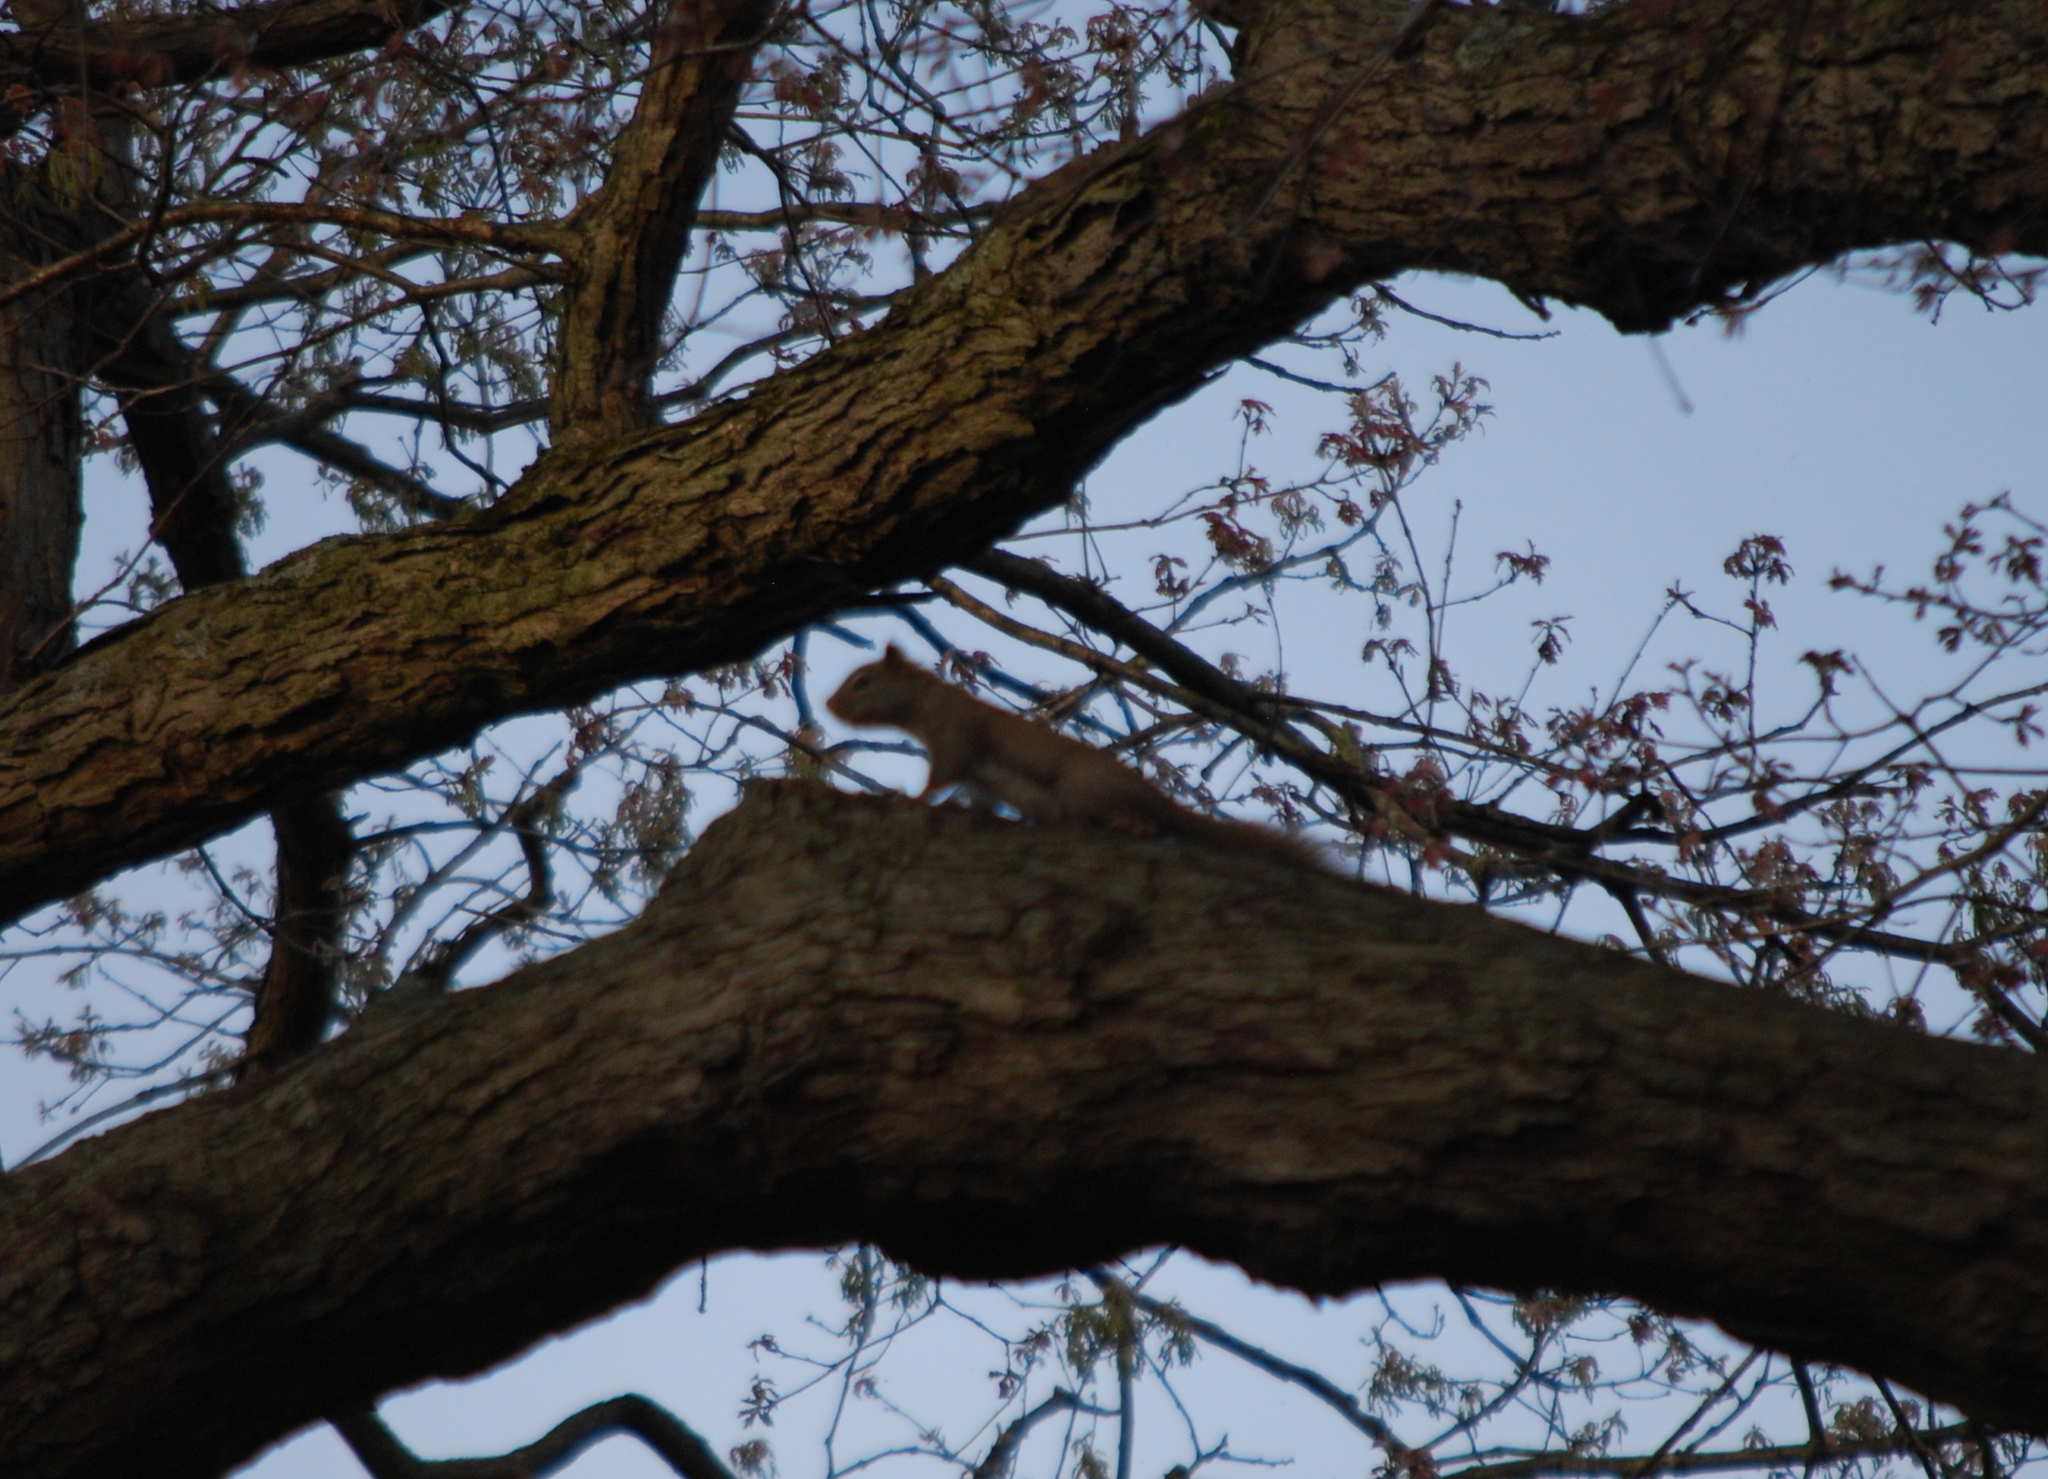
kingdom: Animalia
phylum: Chordata
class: Mammalia
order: Rodentia
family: Sciuridae
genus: Tamiasciurus
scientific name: Tamiasciurus hudsonicus
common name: Red squirrel
